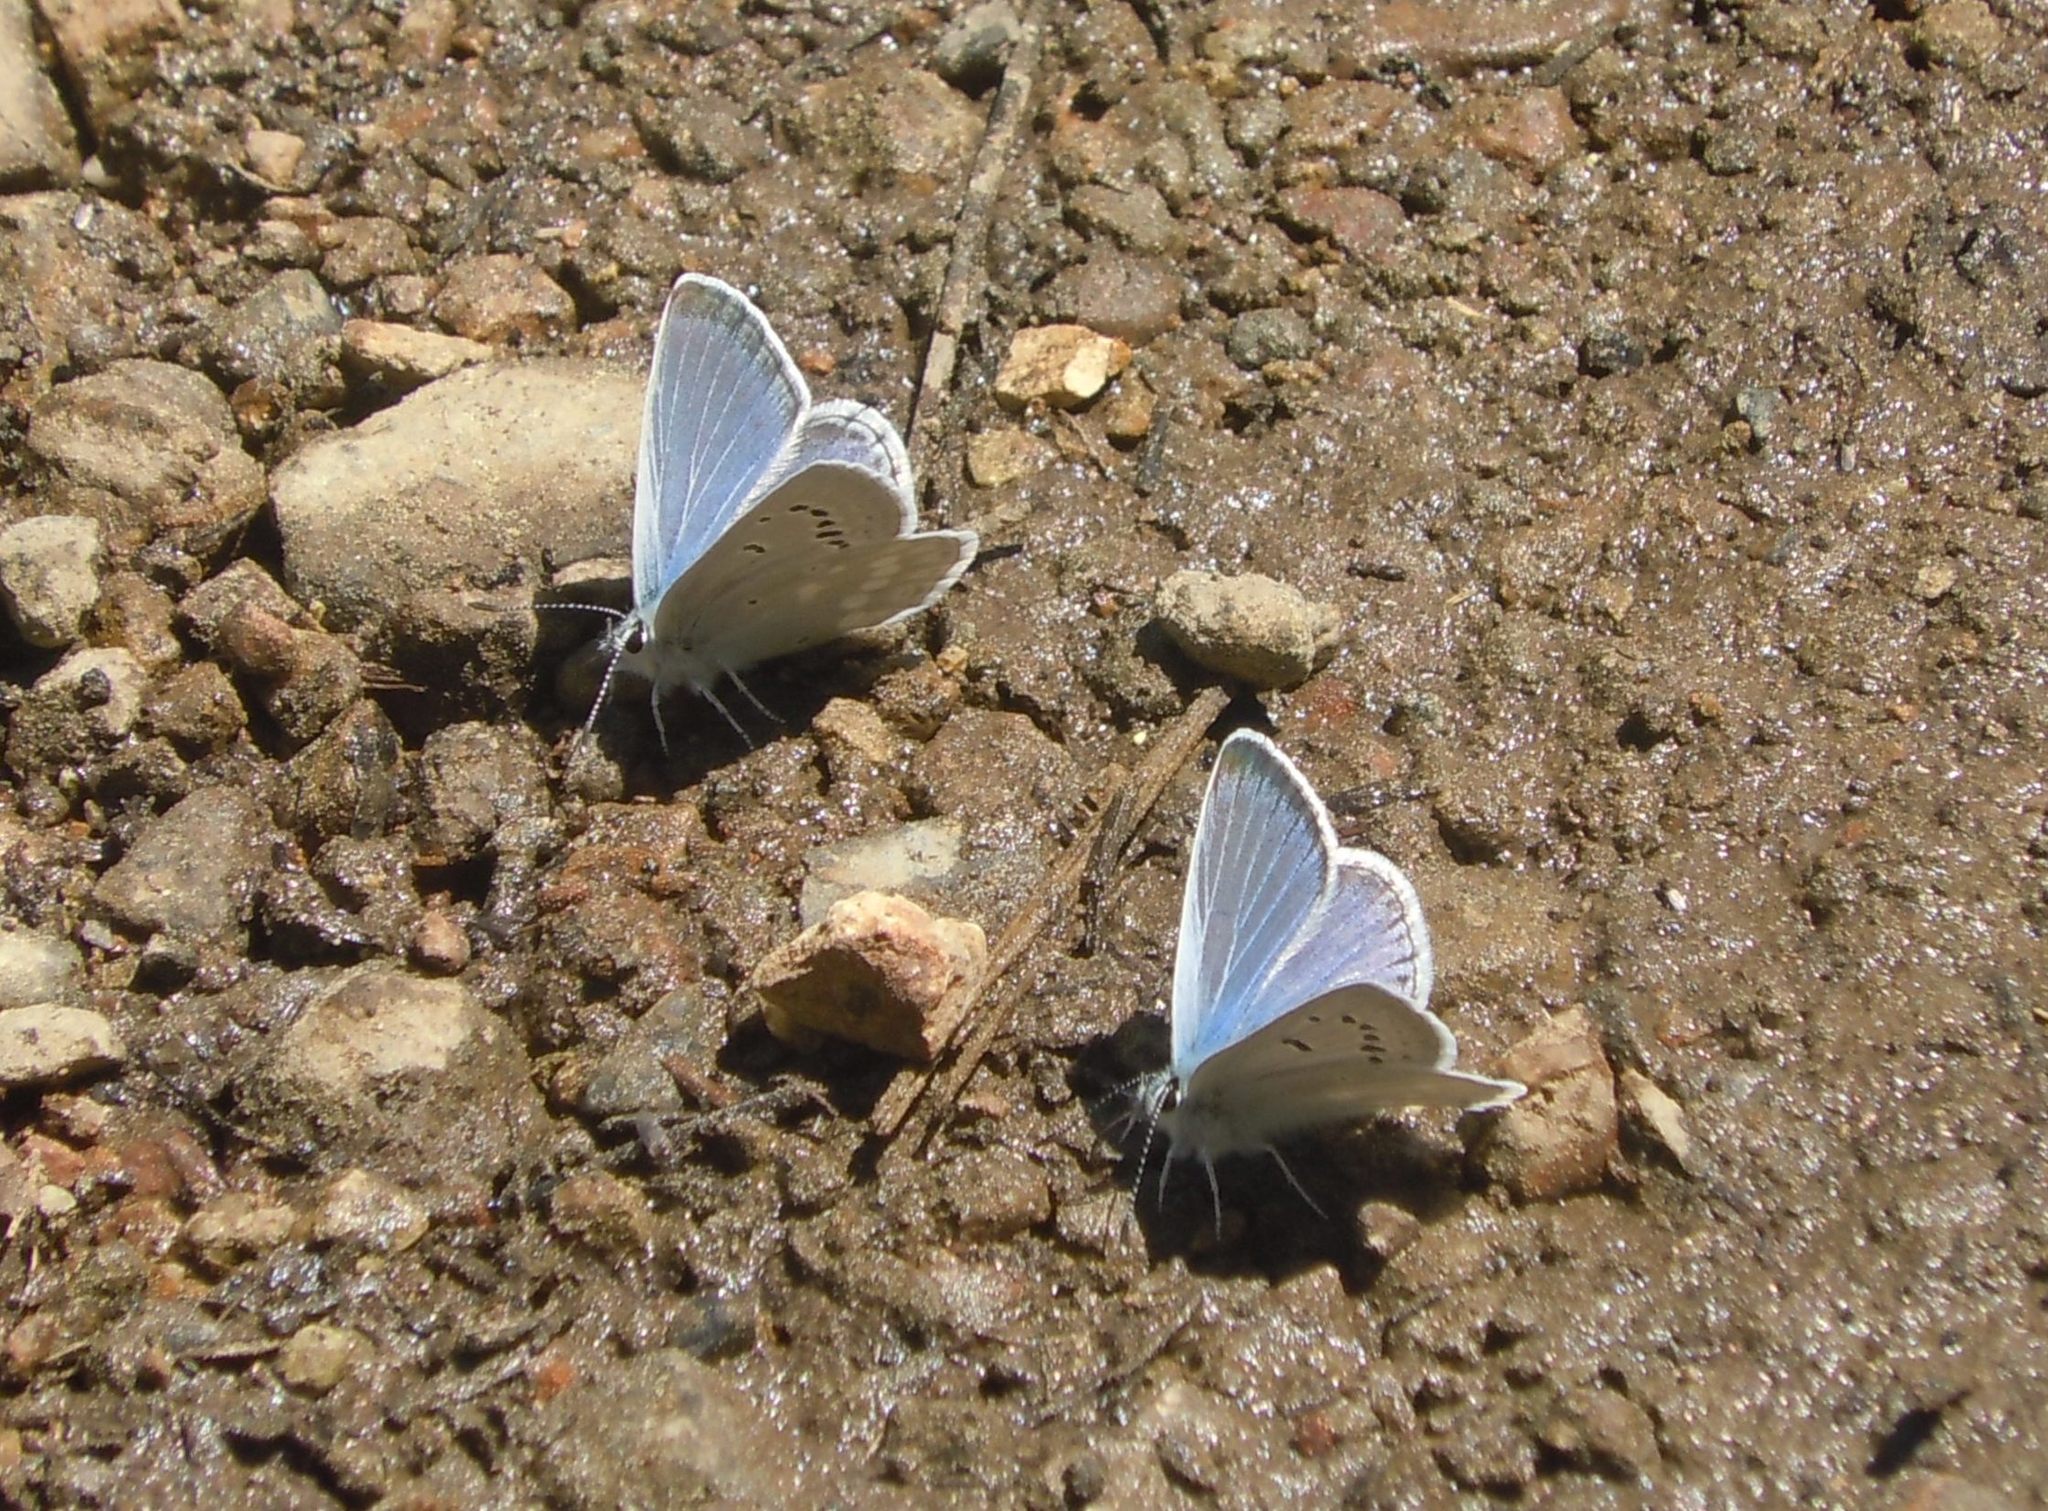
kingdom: Animalia
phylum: Arthropoda
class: Insecta
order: Lepidoptera
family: Lycaenidae
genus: Icaricia
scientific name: Icaricia icarioides
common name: Boisduval's blue
